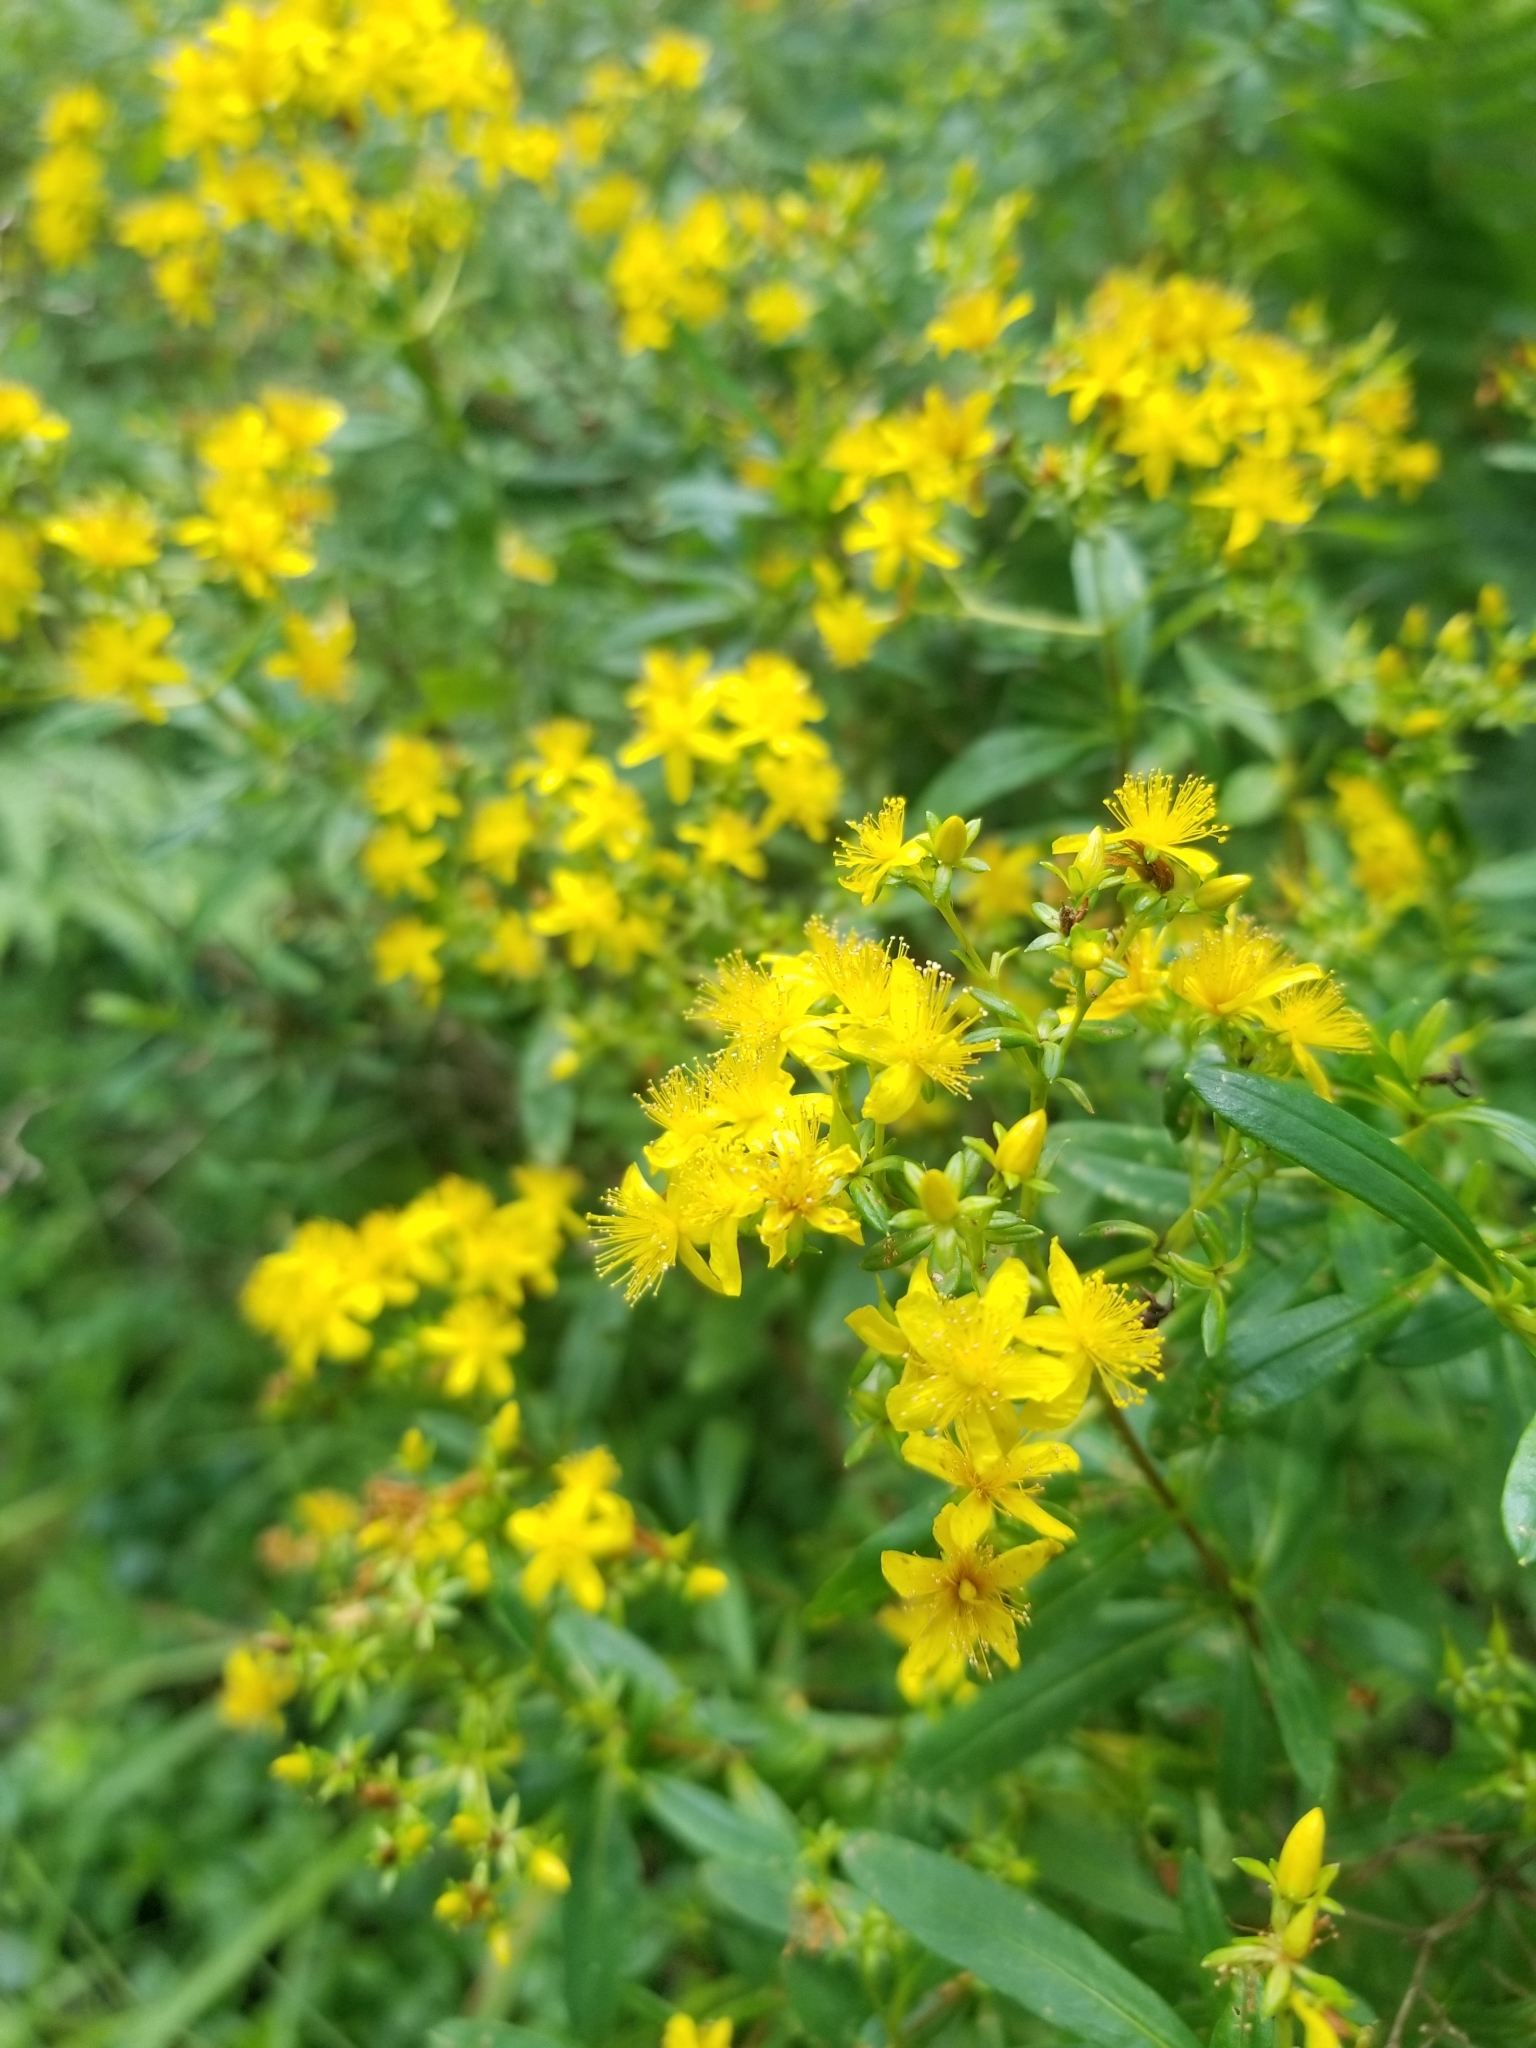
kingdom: Plantae
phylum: Tracheophyta
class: Magnoliopsida
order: Malpighiales
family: Hypericaceae
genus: Hypericum
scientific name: Hypericum perforatum
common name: Common st. johnswort
